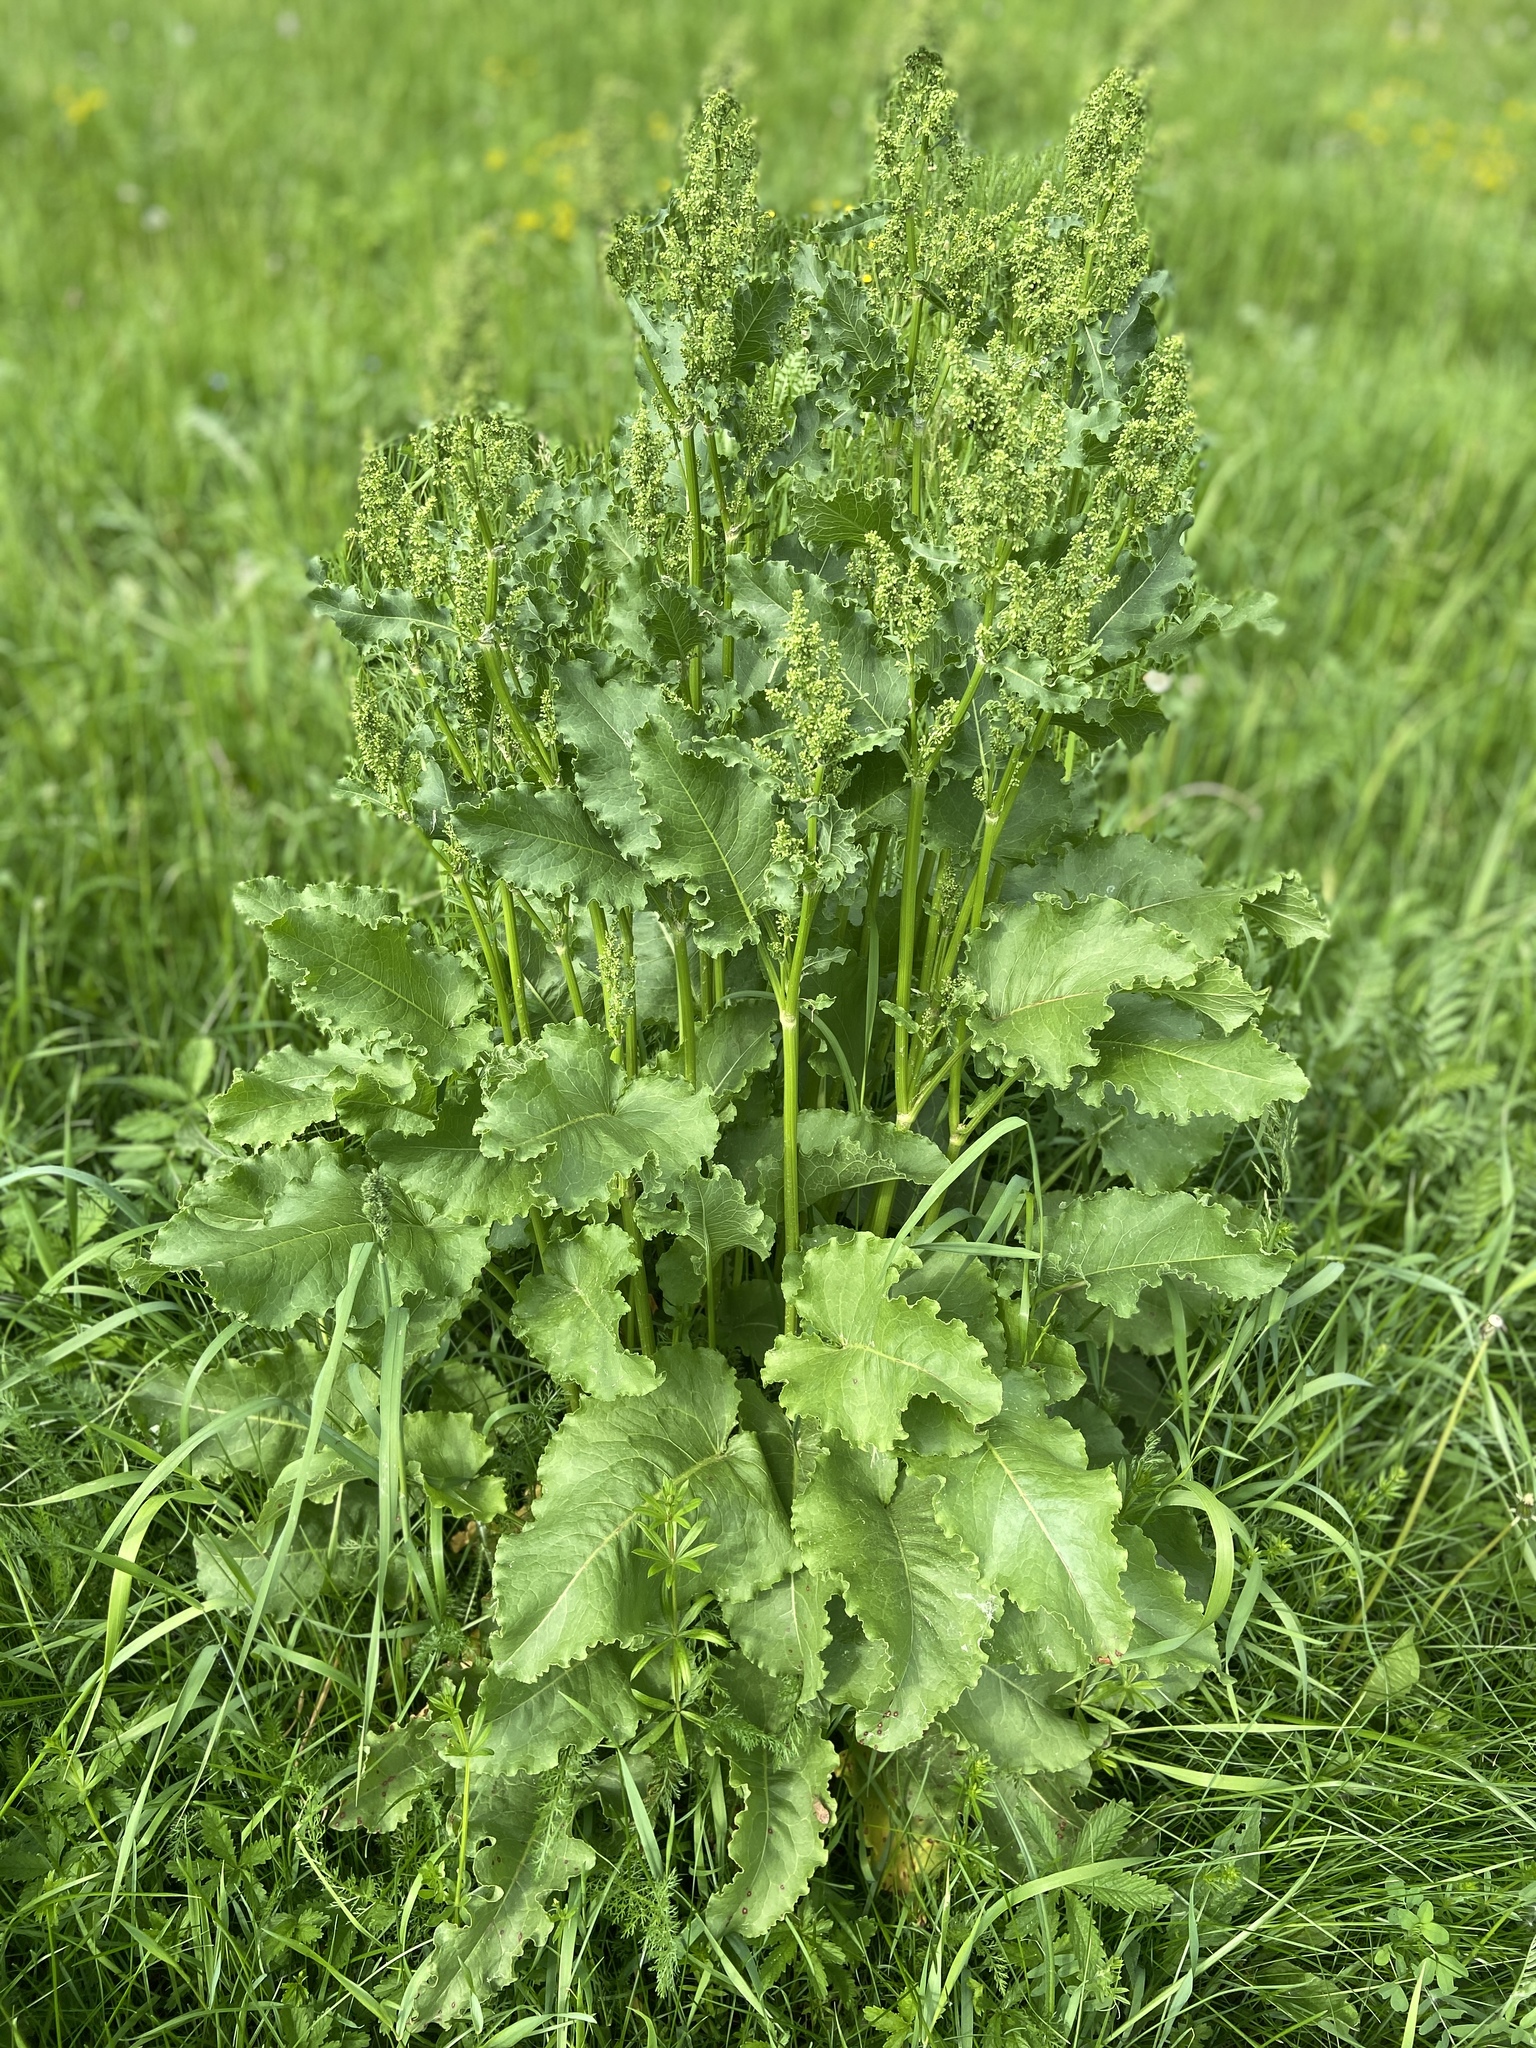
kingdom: Plantae
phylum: Tracheophyta
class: Magnoliopsida
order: Caryophyllales
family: Polygonaceae
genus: Rumex
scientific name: Rumex confertus
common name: Russian dock
